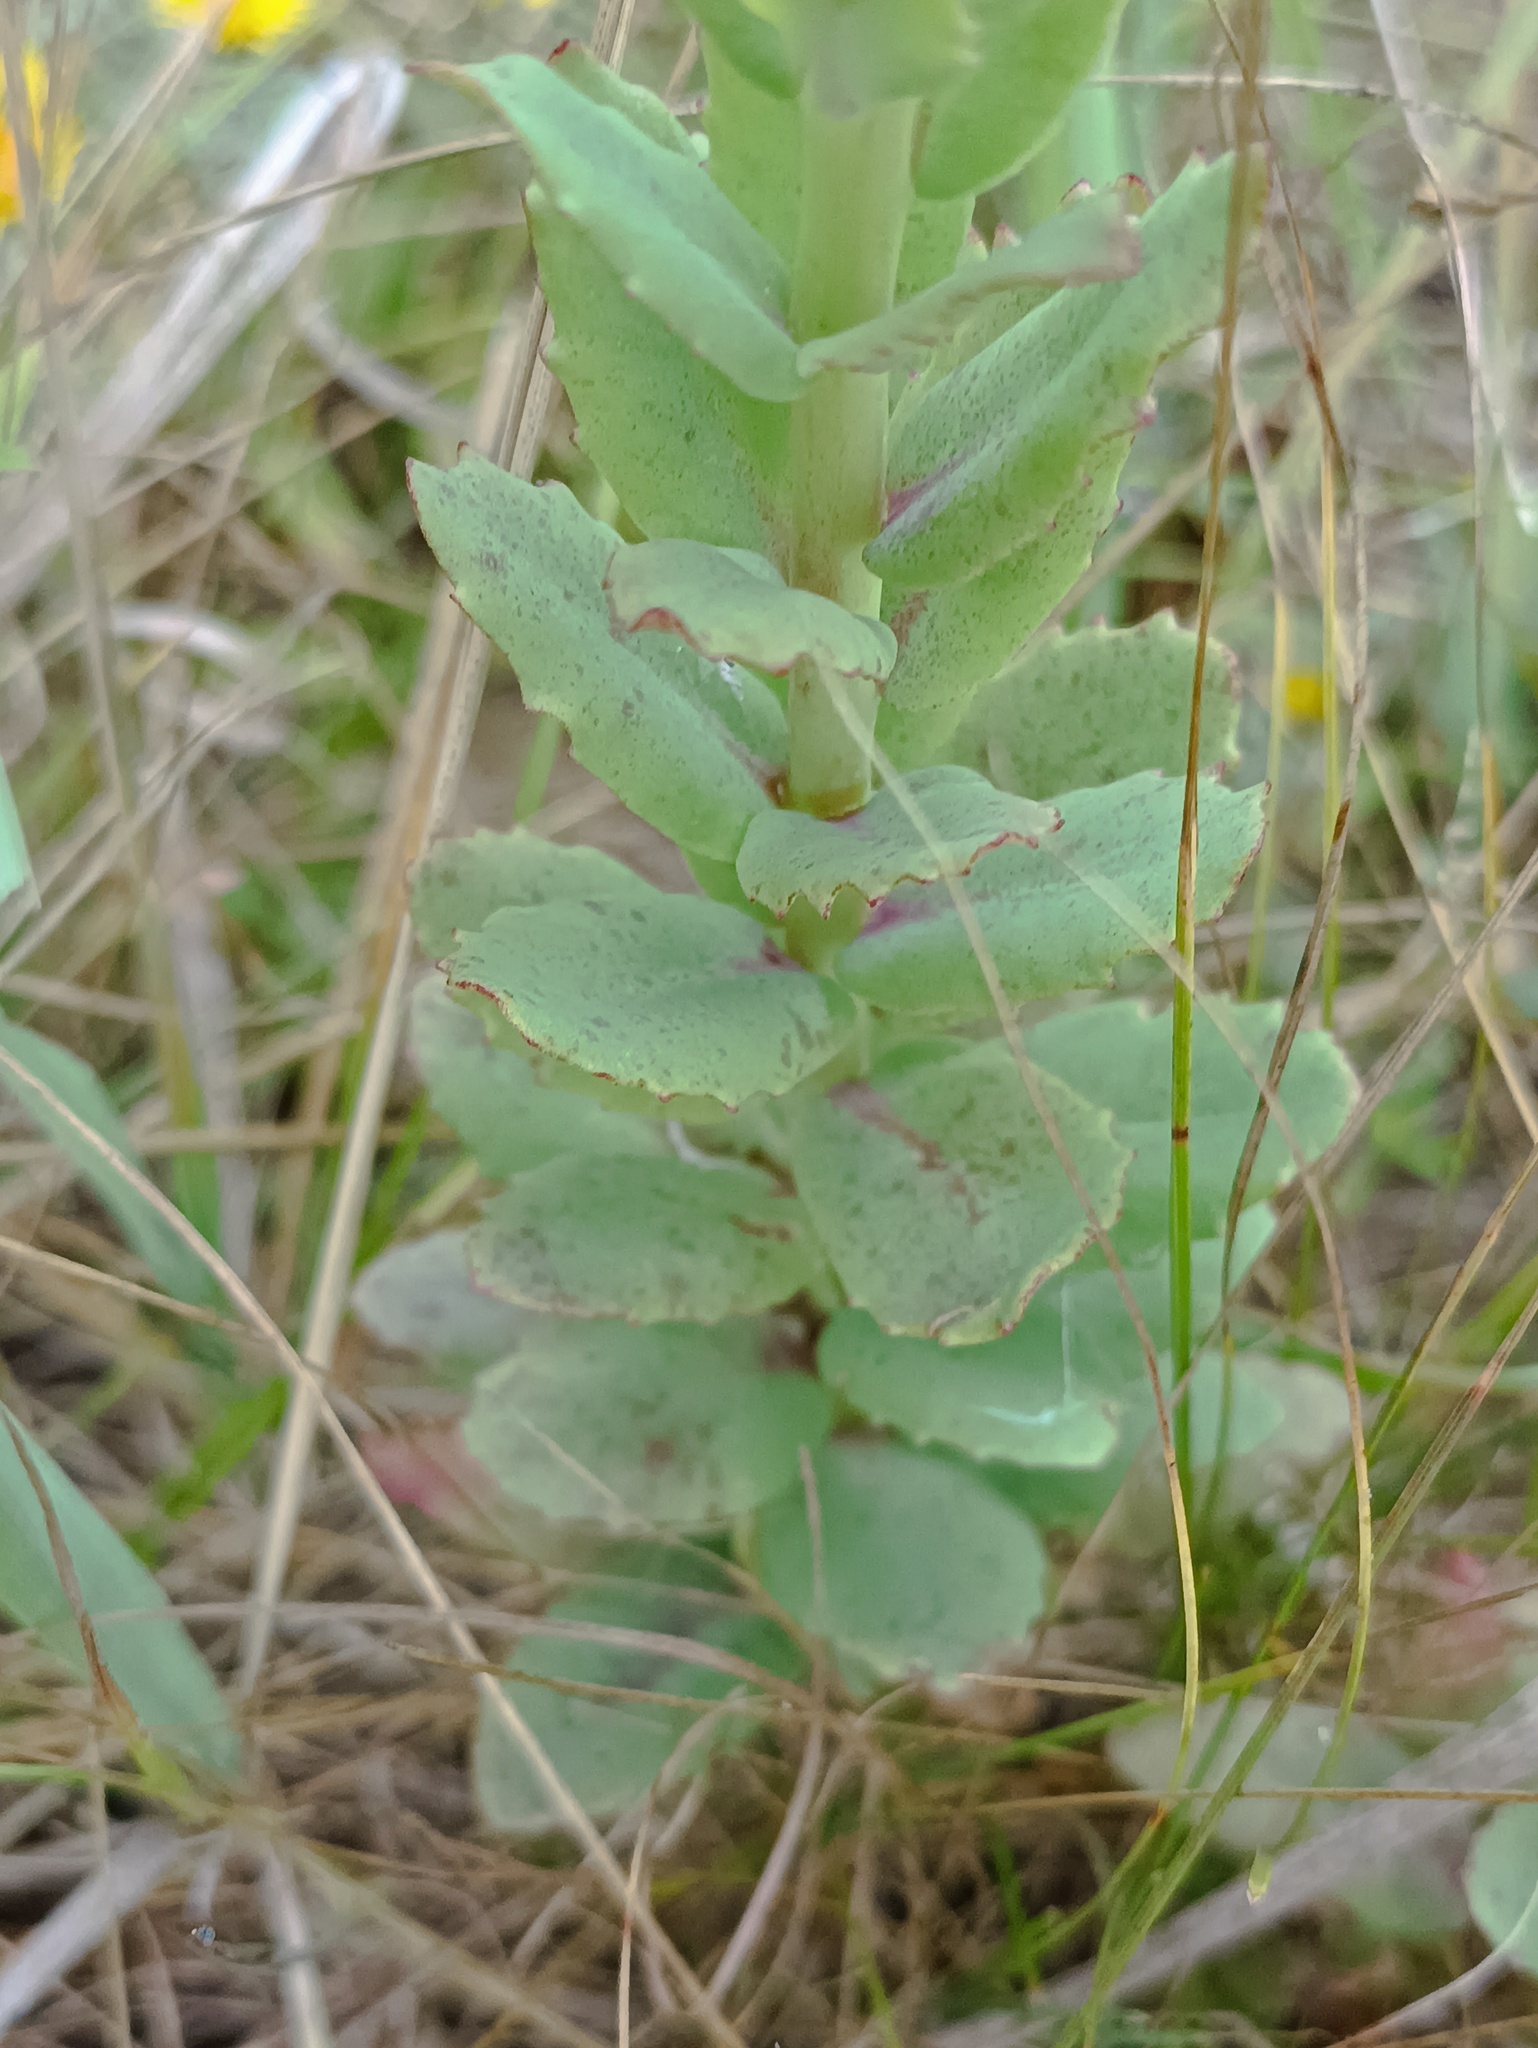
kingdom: Plantae
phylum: Tracheophyta
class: Magnoliopsida
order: Saxifragales
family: Crassulaceae
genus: Hylotelephium
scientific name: Hylotelephium maximum
